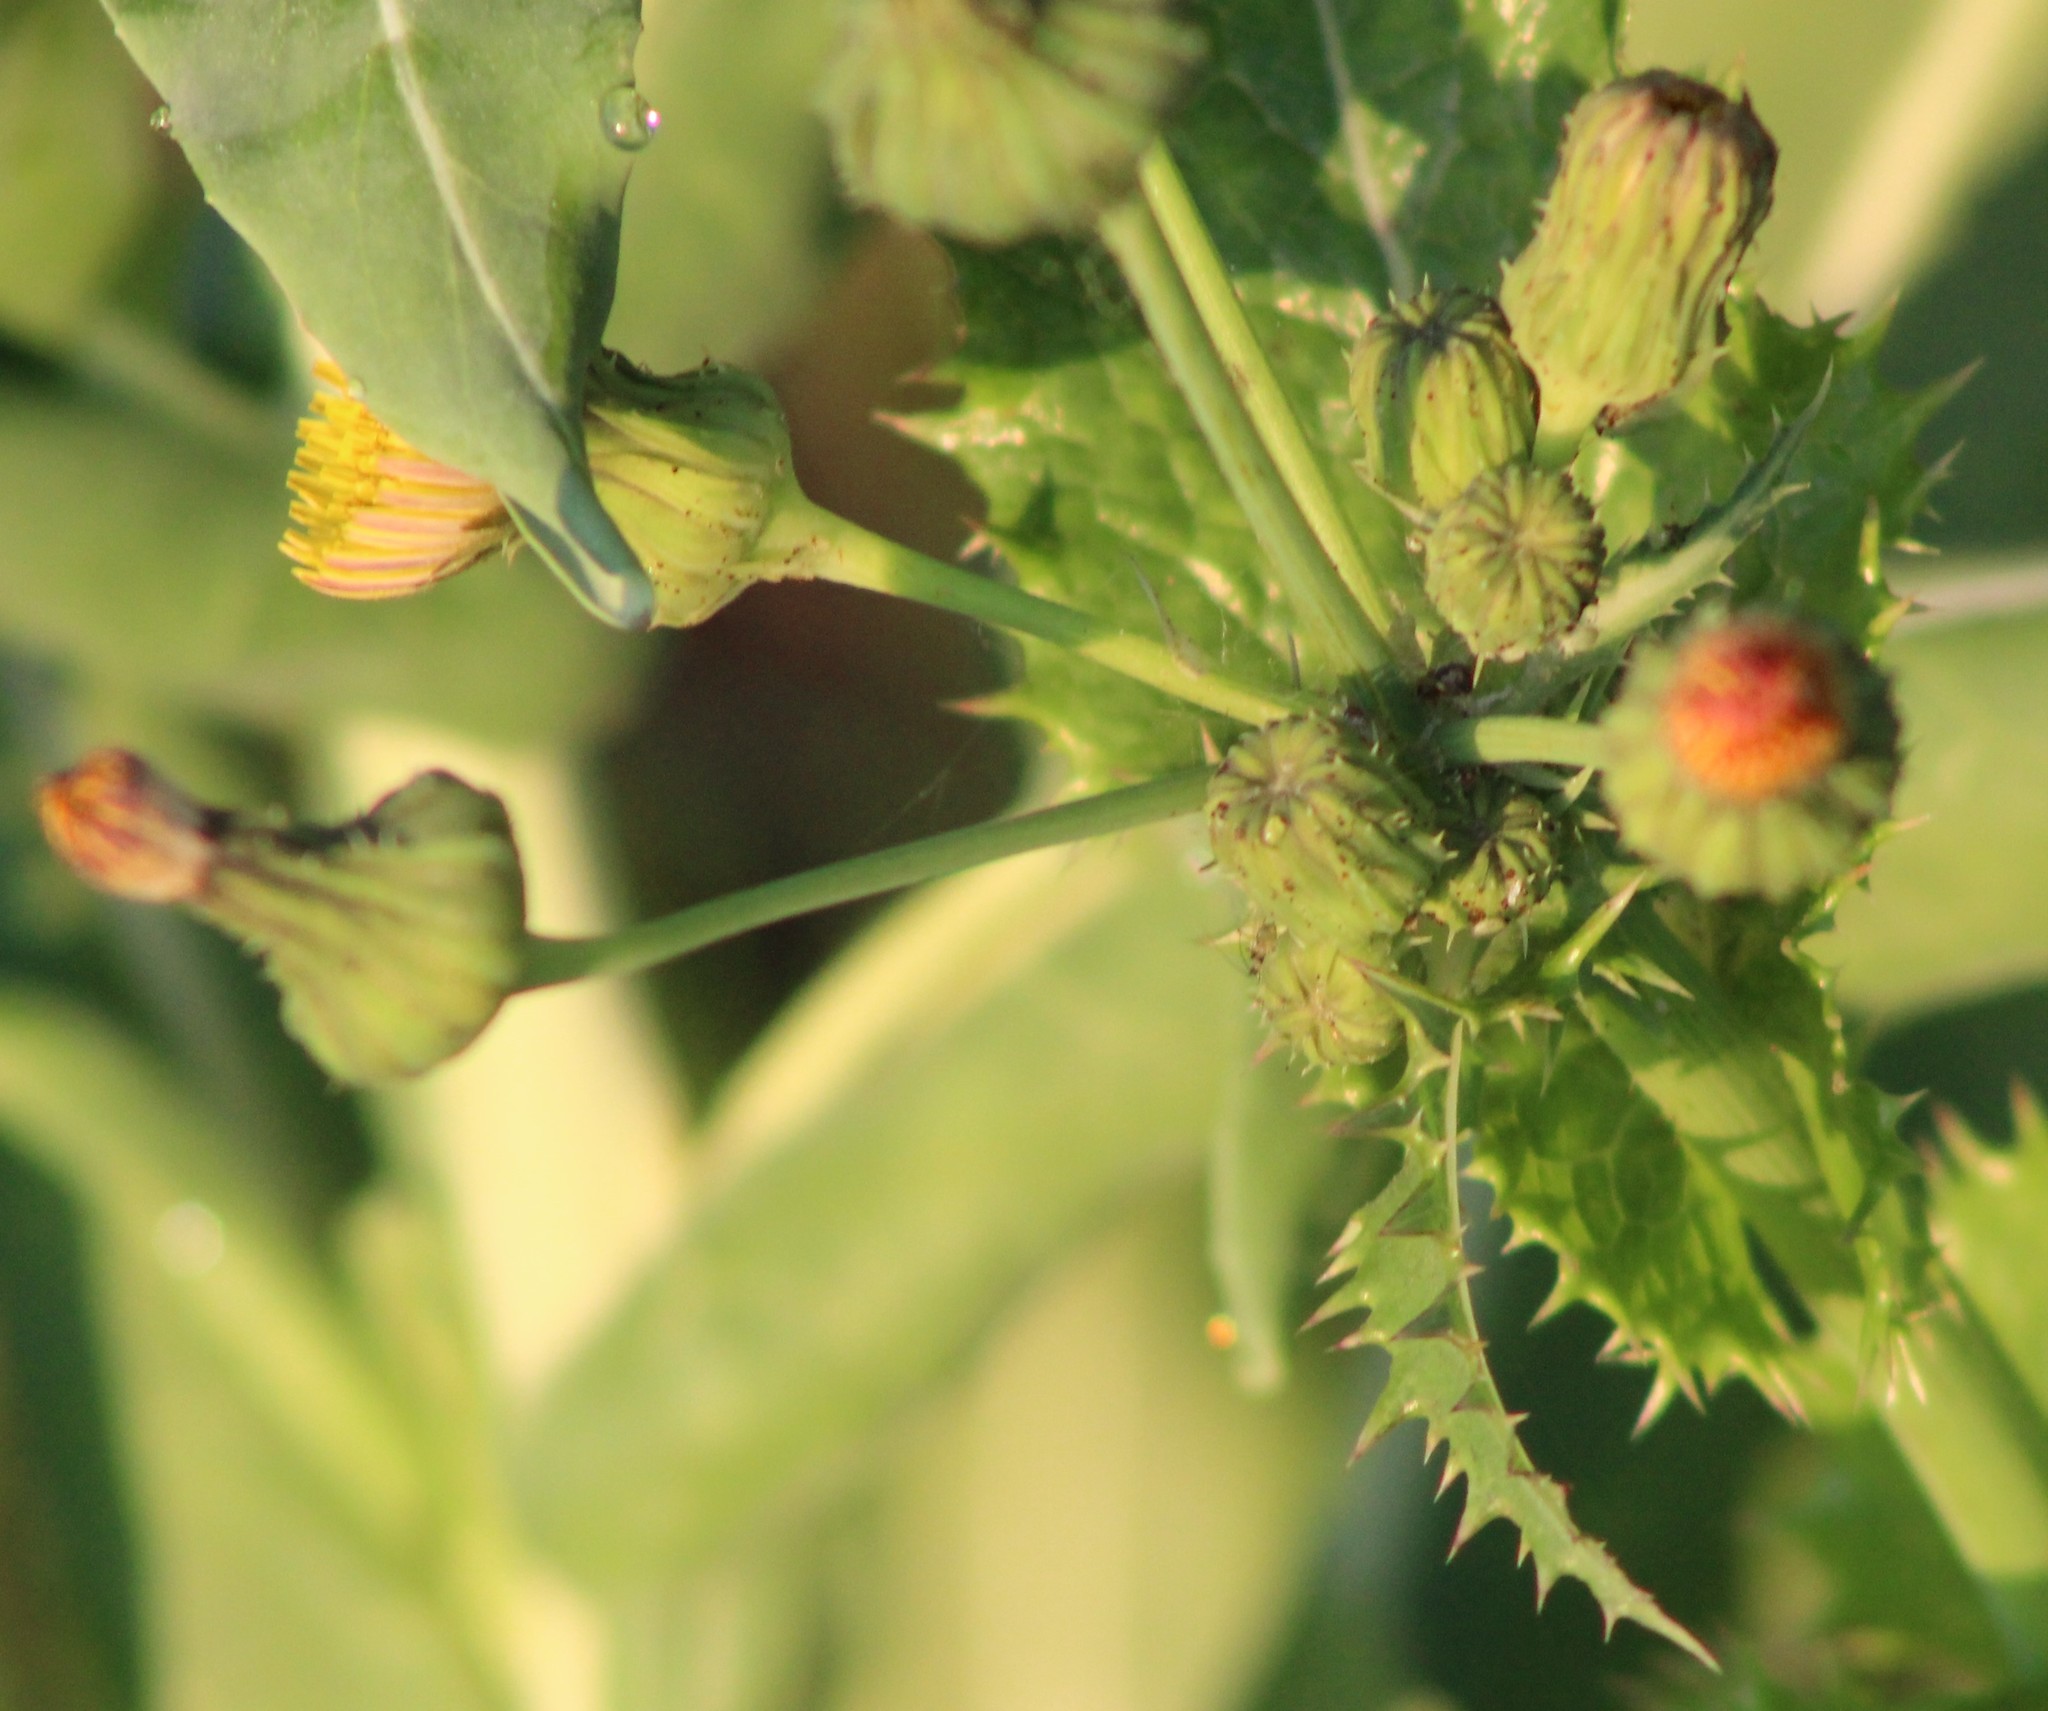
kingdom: Plantae
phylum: Tracheophyta
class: Magnoliopsida
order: Asterales
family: Asteraceae
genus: Sonchus
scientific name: Sonchus asper
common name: Prickly sow-thistle
